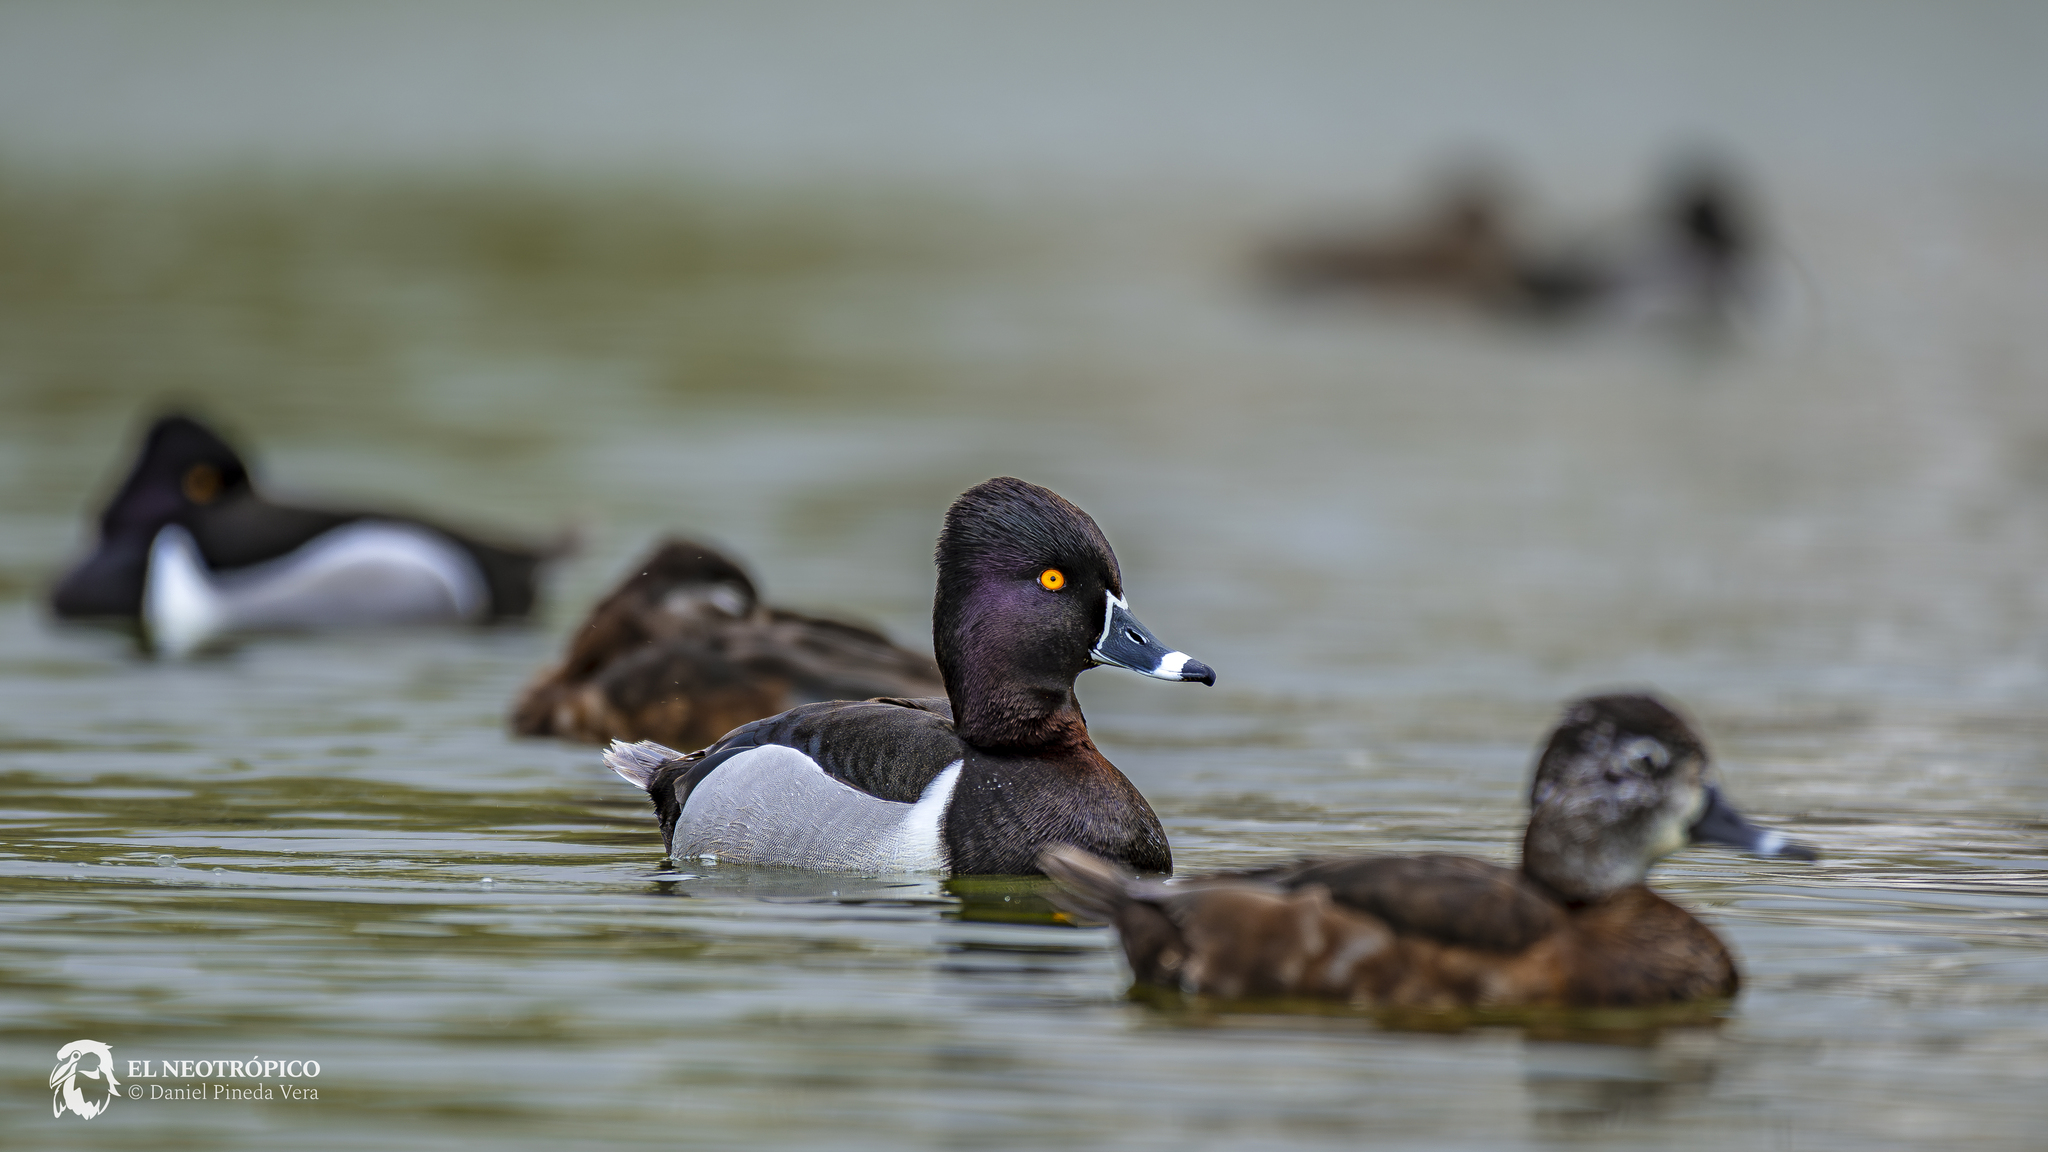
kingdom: Animalia
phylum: Chordata
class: Aves
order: Anseriformes
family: Anatidae
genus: Aythya
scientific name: Aythya collaris
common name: Ring-necked duck
